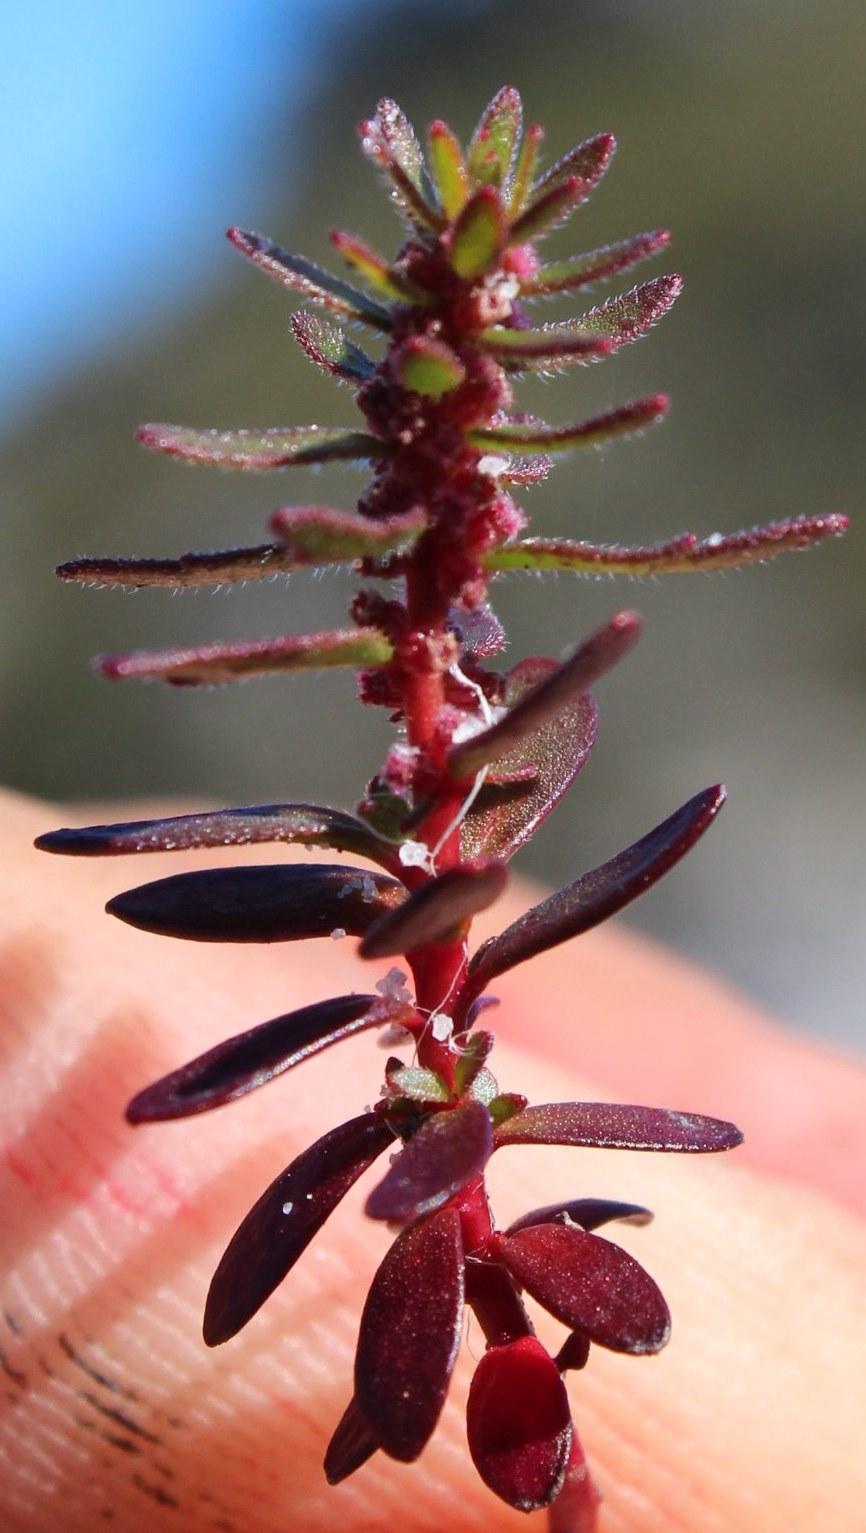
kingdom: Plantae
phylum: Tracheophyta
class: Magnoliopsida
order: Saxifragales
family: Haloragaceae
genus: Laurembergia
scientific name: Laurembergia repens
